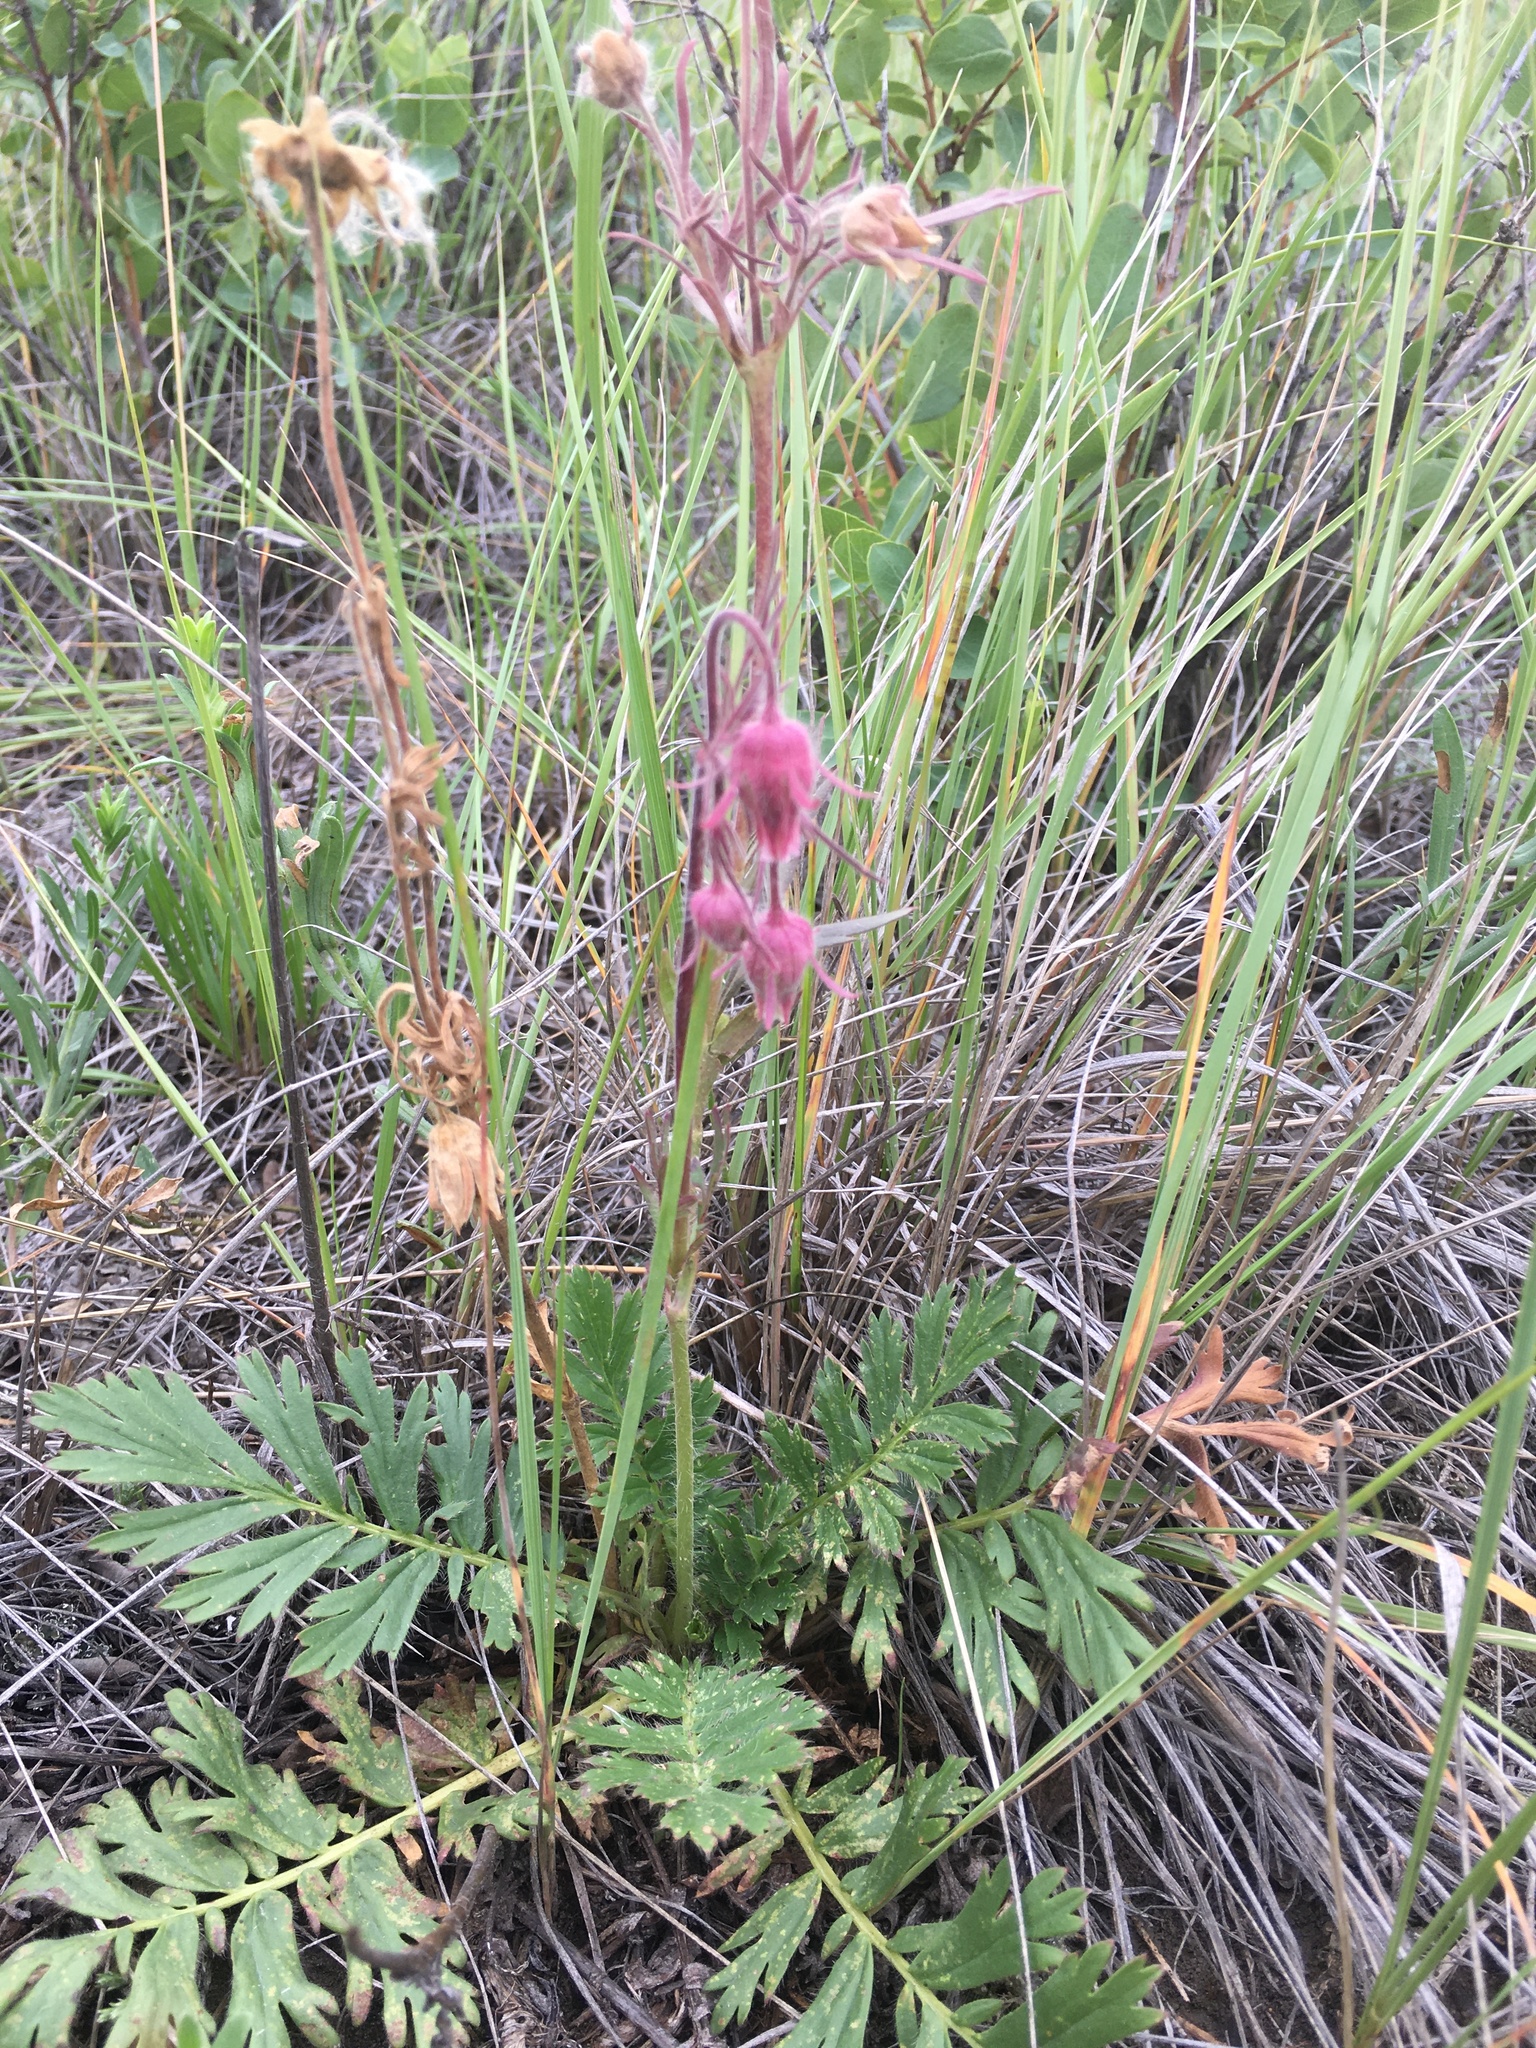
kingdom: Plantae
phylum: Tracheophyta
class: Magnoliopsida
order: Rosales
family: Rosaceae
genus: Geum
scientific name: Geum triflorum
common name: Old man's whiskers
